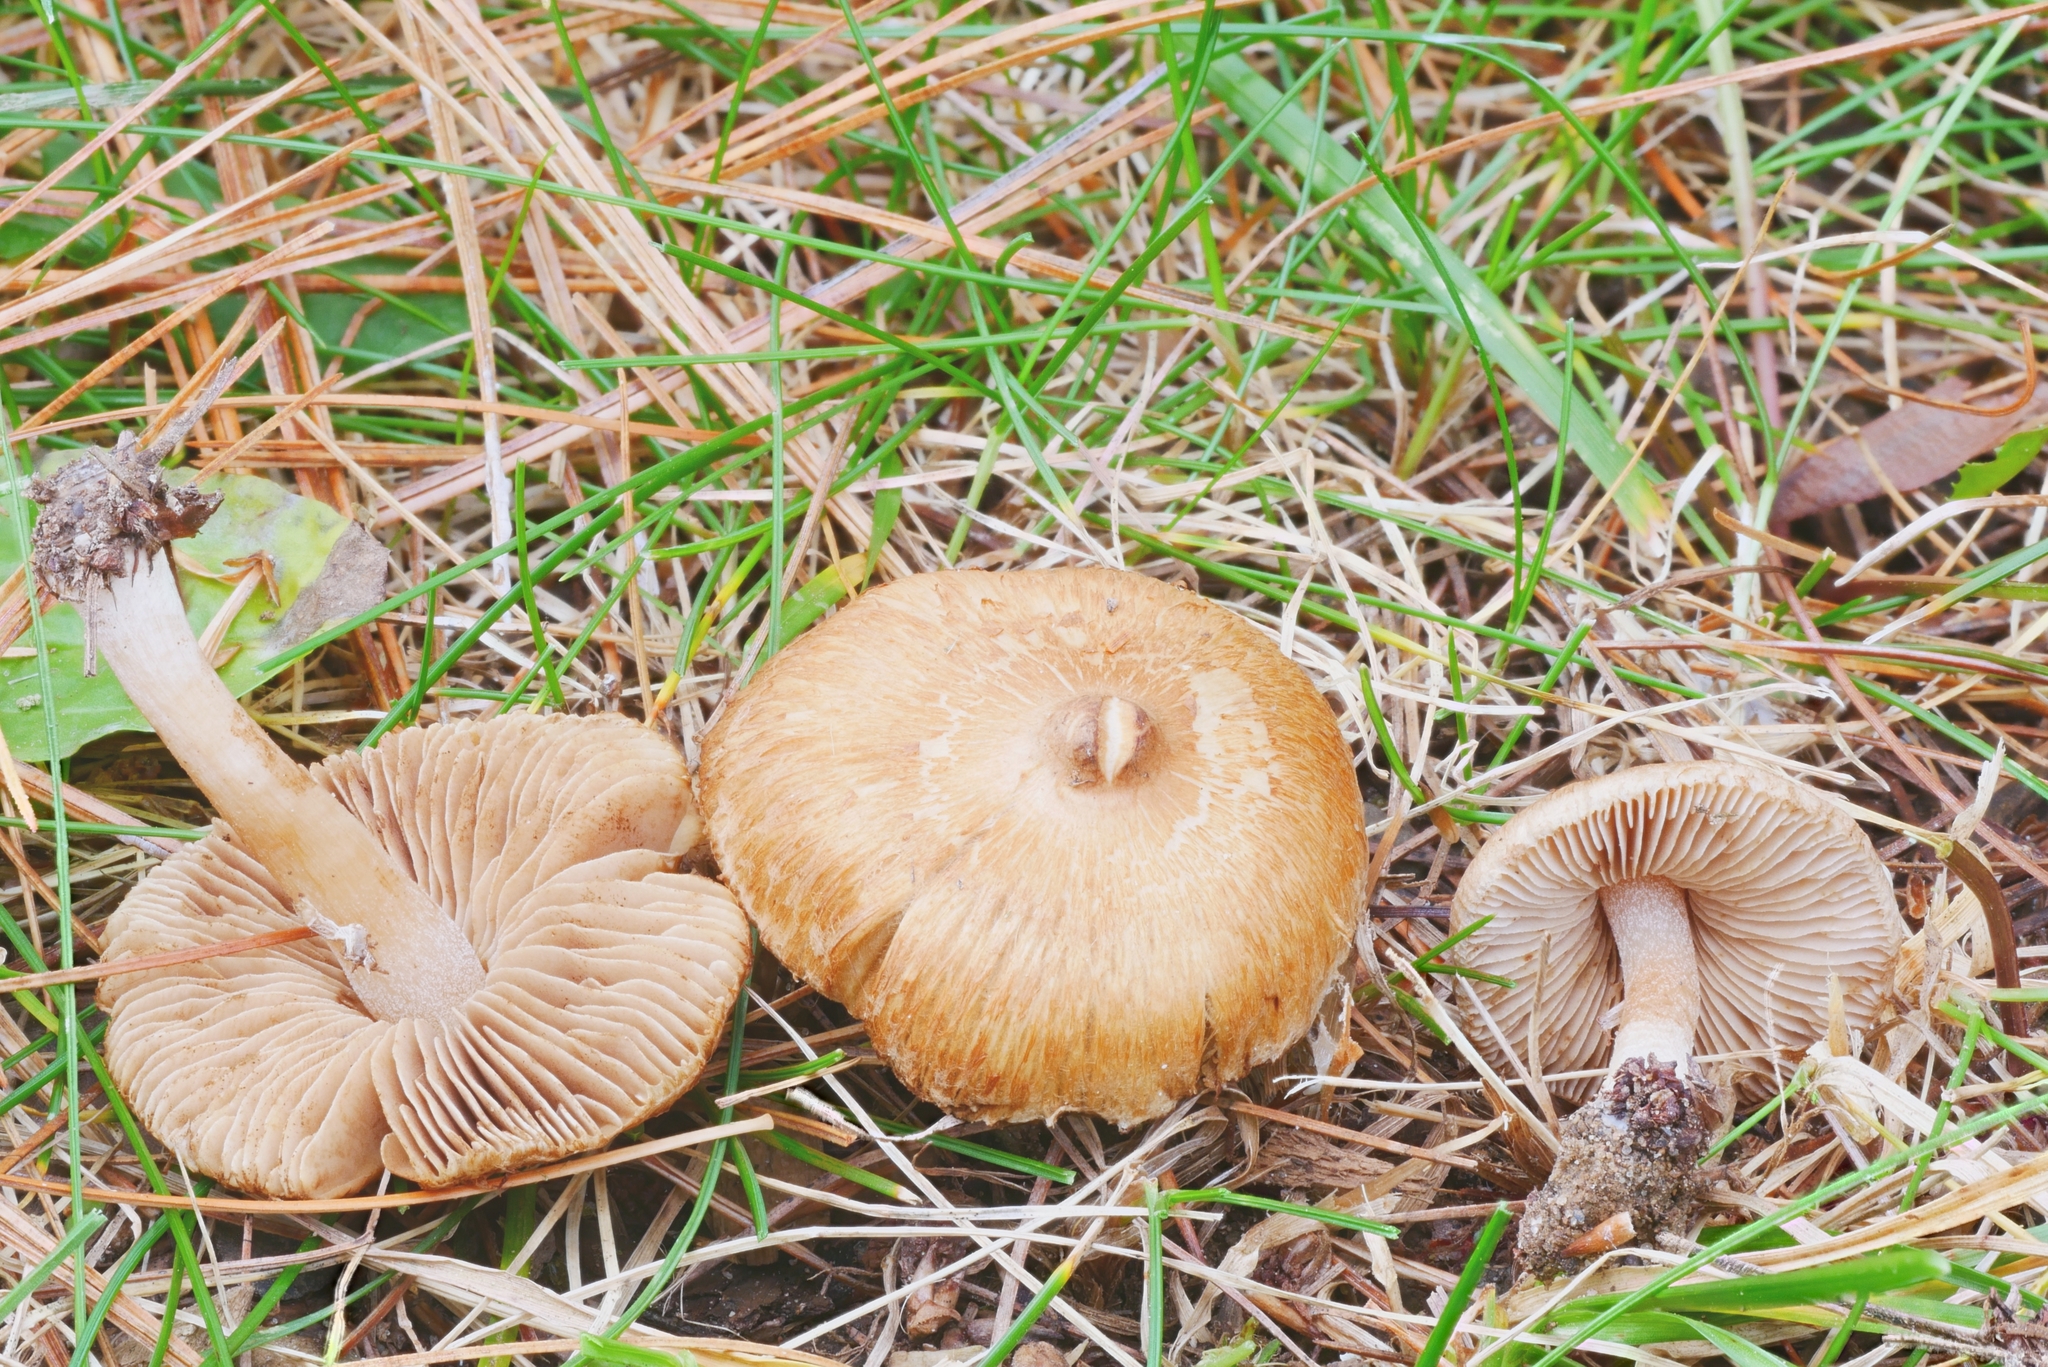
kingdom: Fungi
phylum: Basidiomycota
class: Agaricomycetes
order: Agaricales
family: Inocybaceae
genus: Inocybe
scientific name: Inocybe ochroalba
